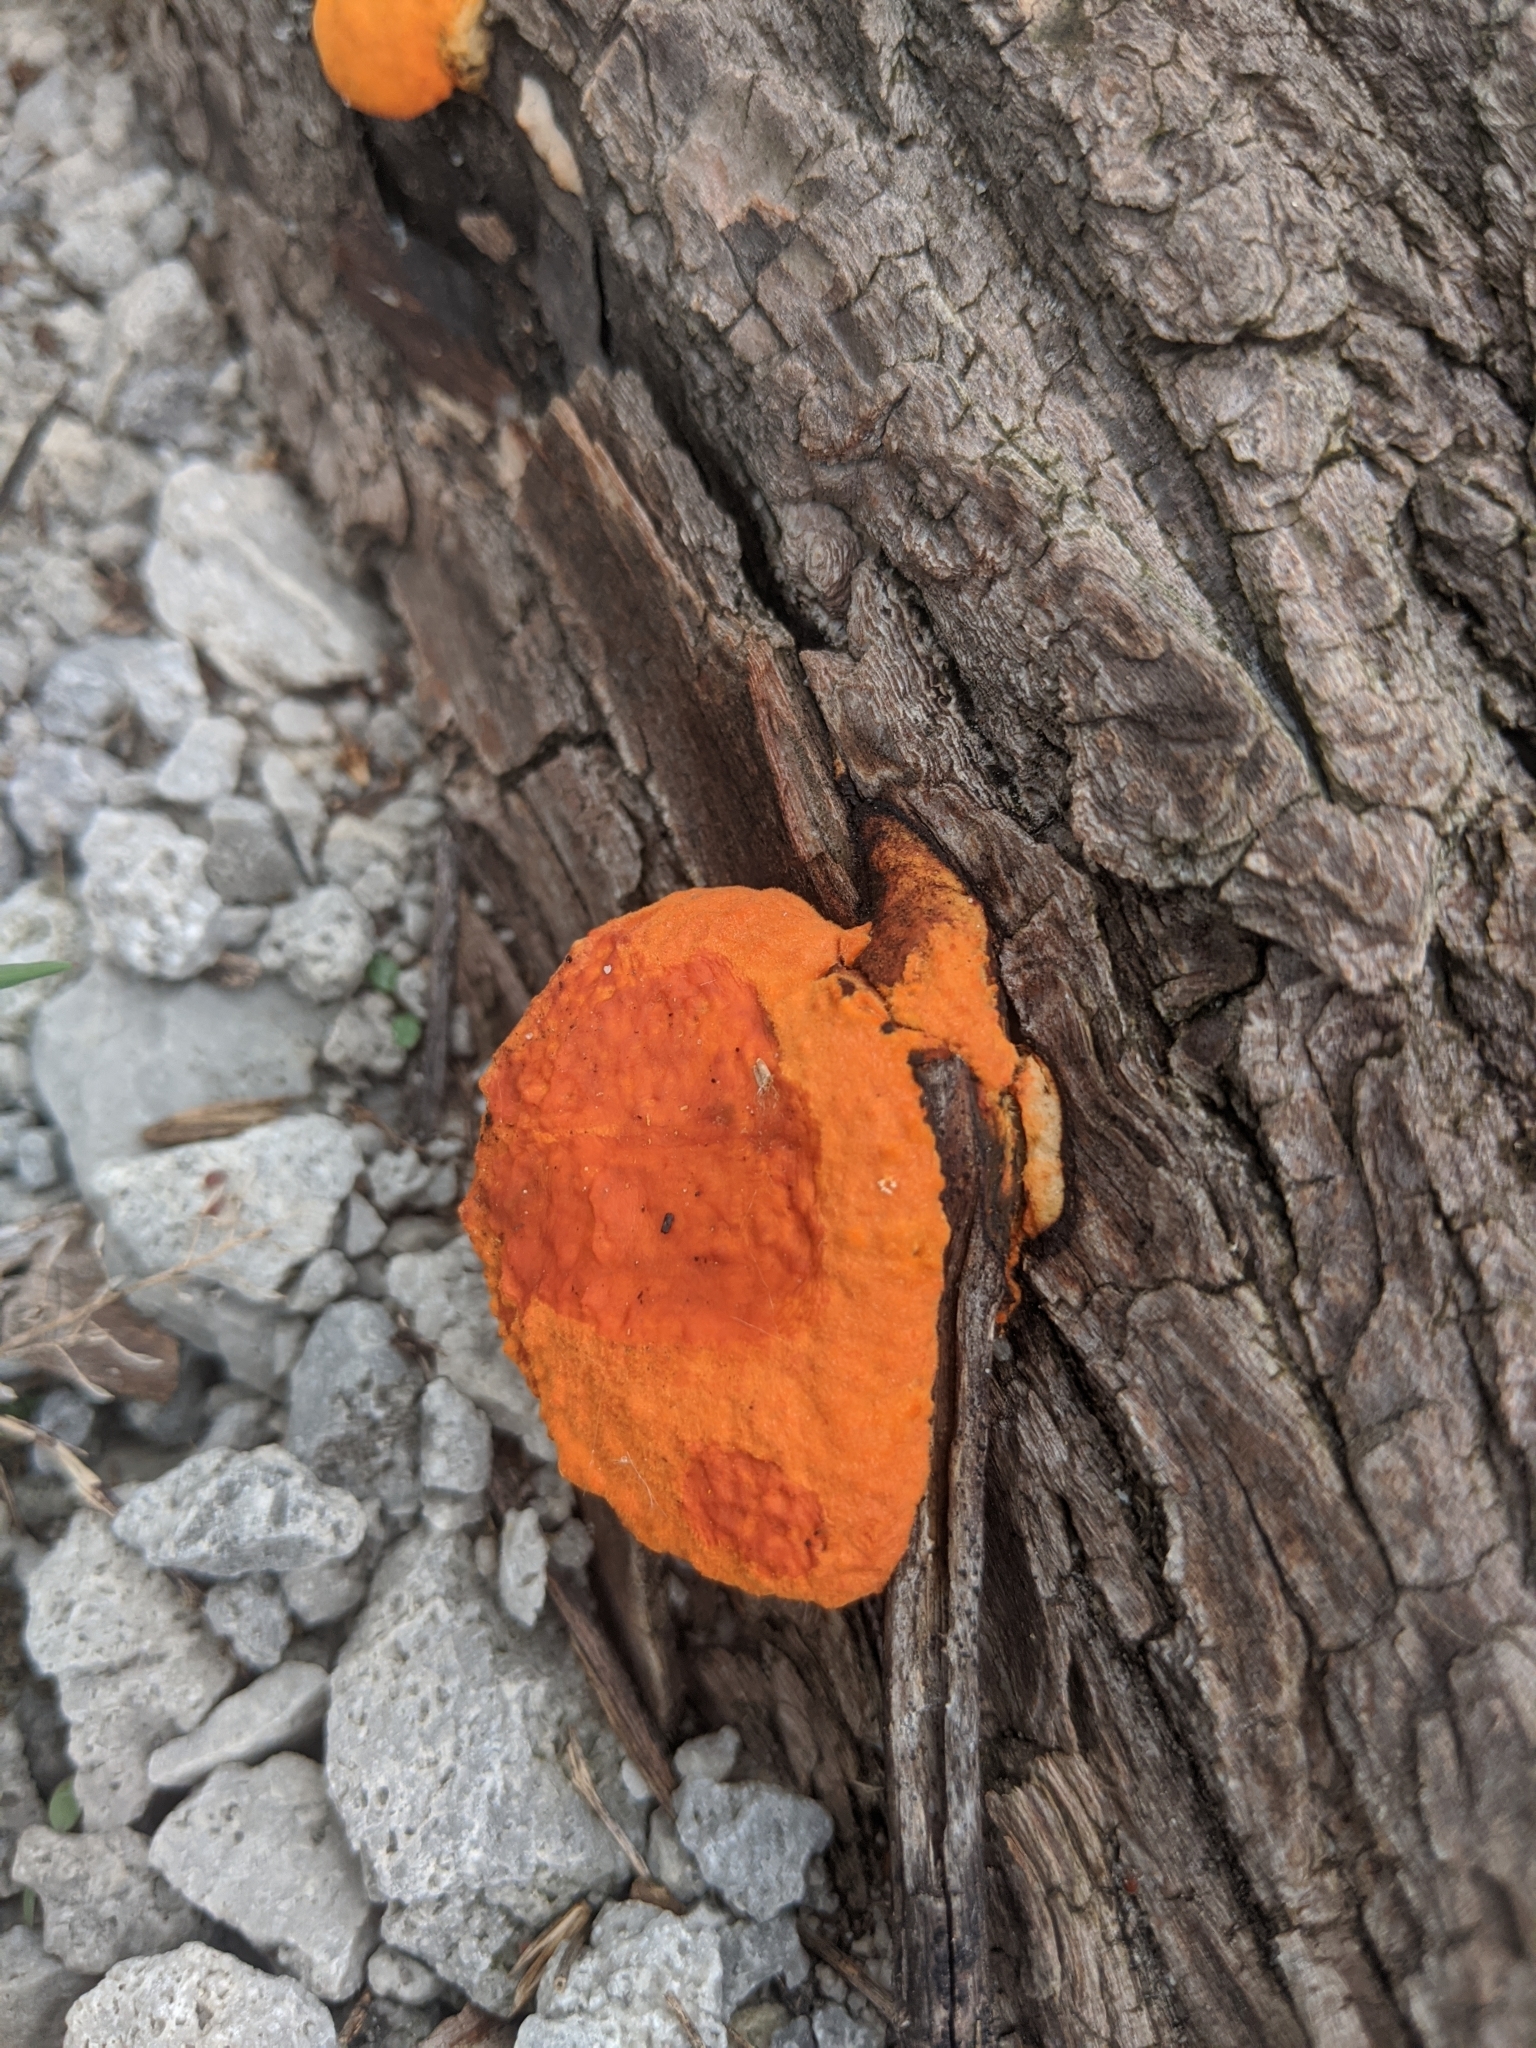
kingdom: Fungi
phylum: Basidiomycota
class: Agaricomycetes
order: Polyporales
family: Polyporaceae
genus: Trametes
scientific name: Trametes cinnabarina
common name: Northern cinnabar polypore
